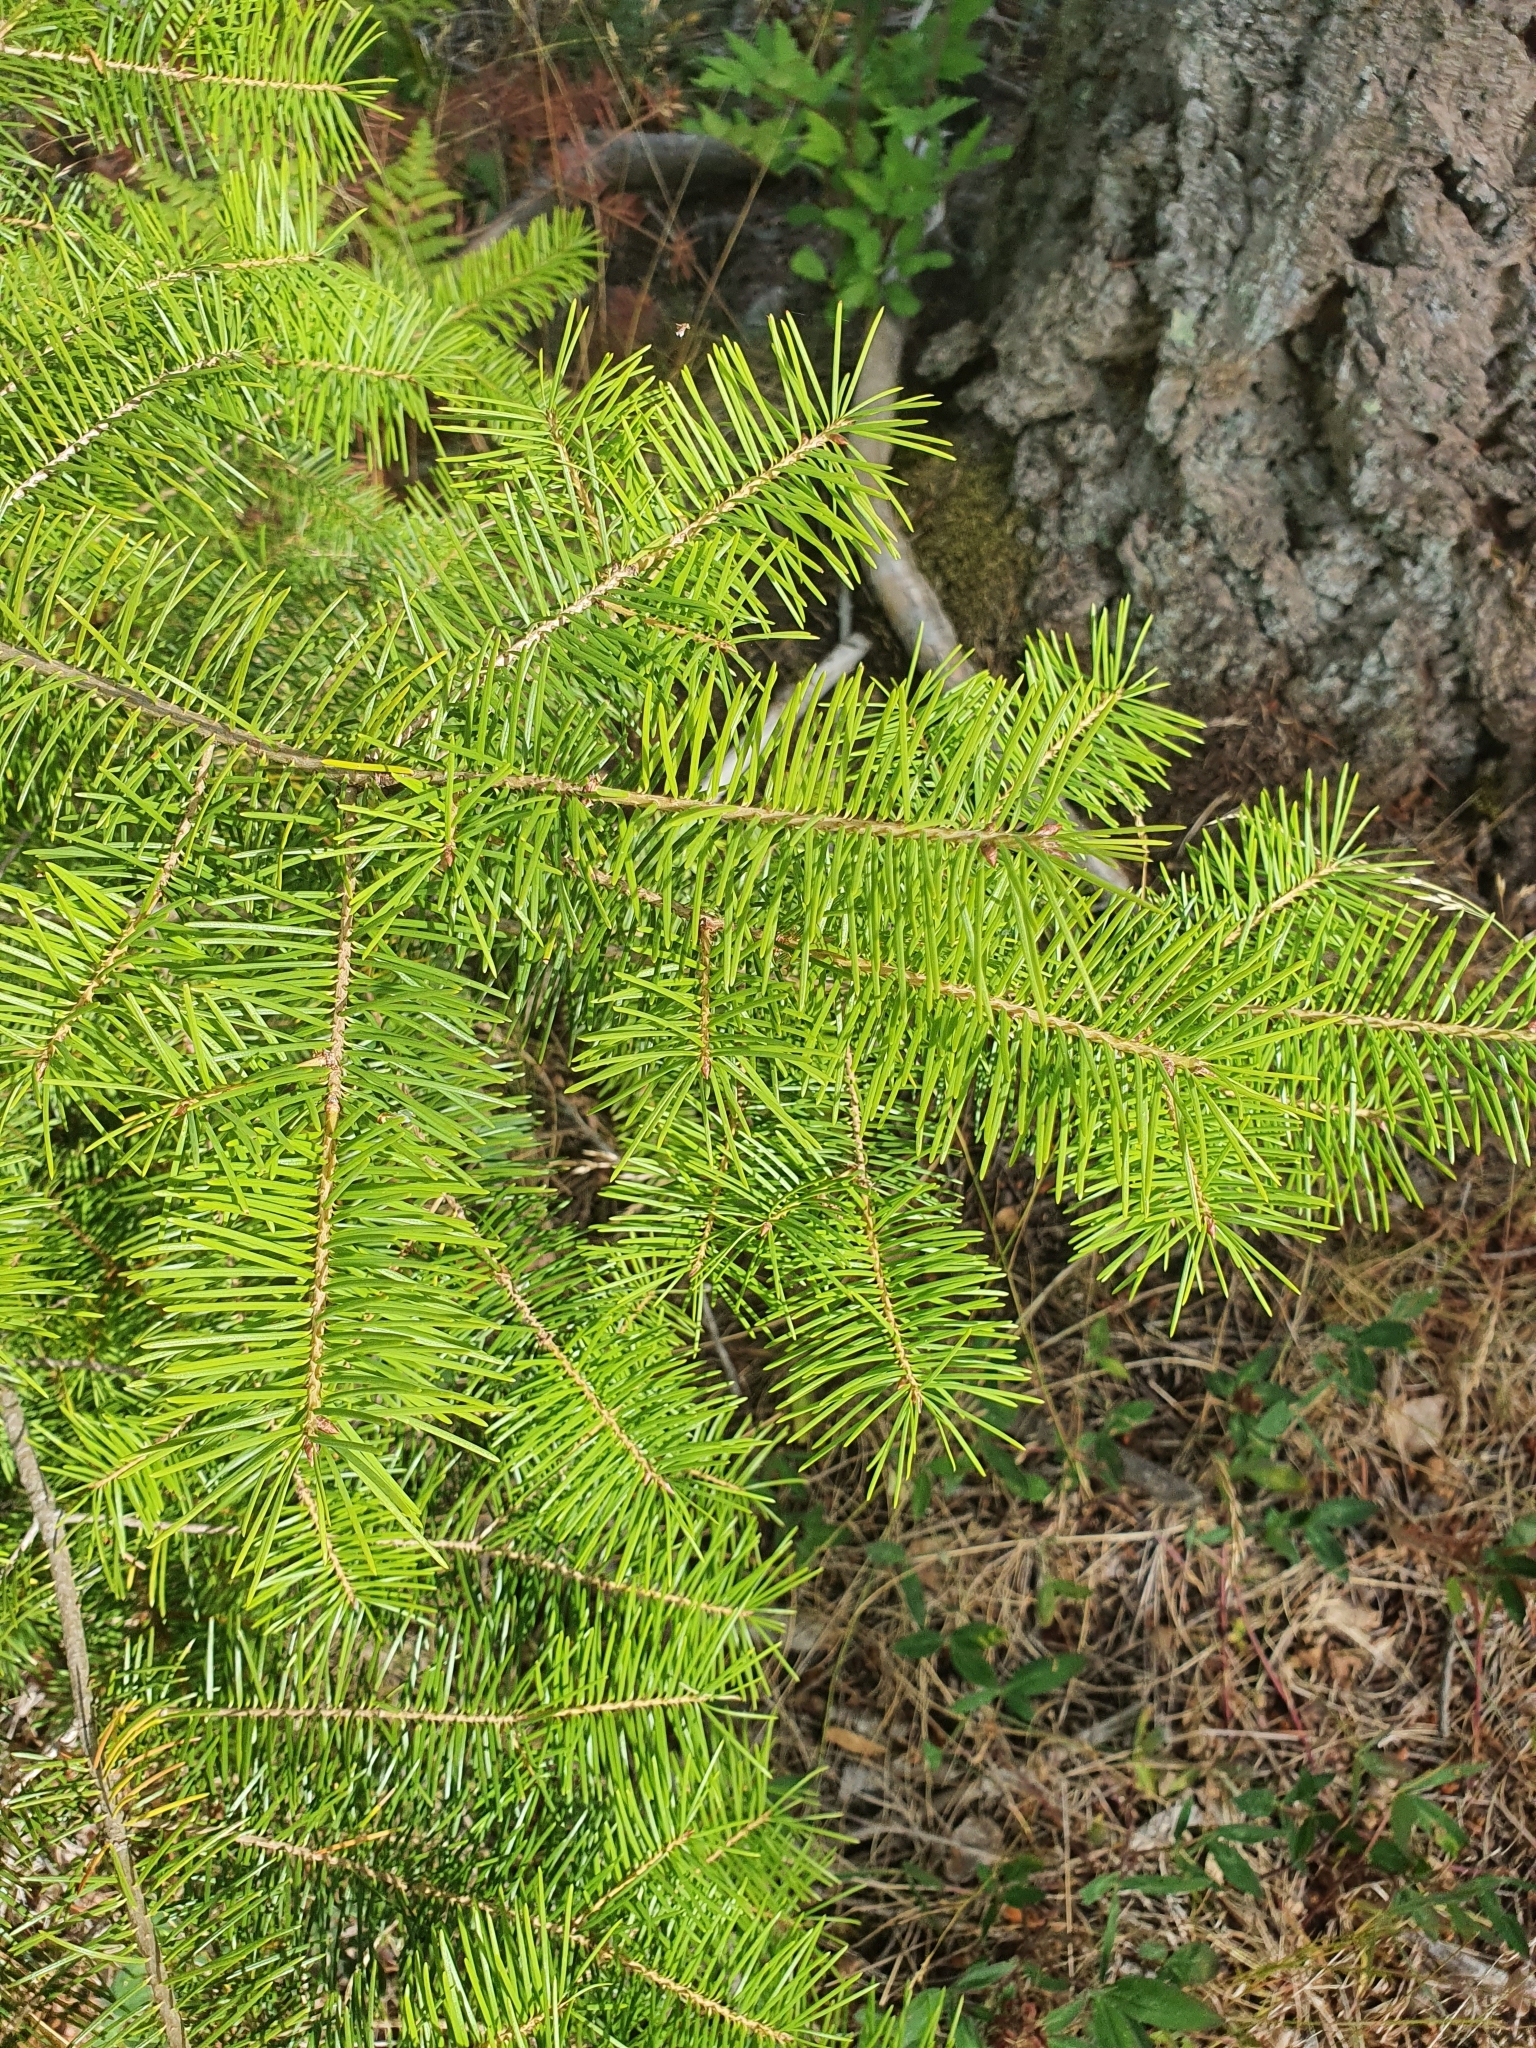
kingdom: Plantae
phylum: Tracheophyta
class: Pinopsida
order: Pinales
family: Pinaceae
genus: Pseudotsuga
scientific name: Pseudotsuga menziesii
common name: Douglas fir
